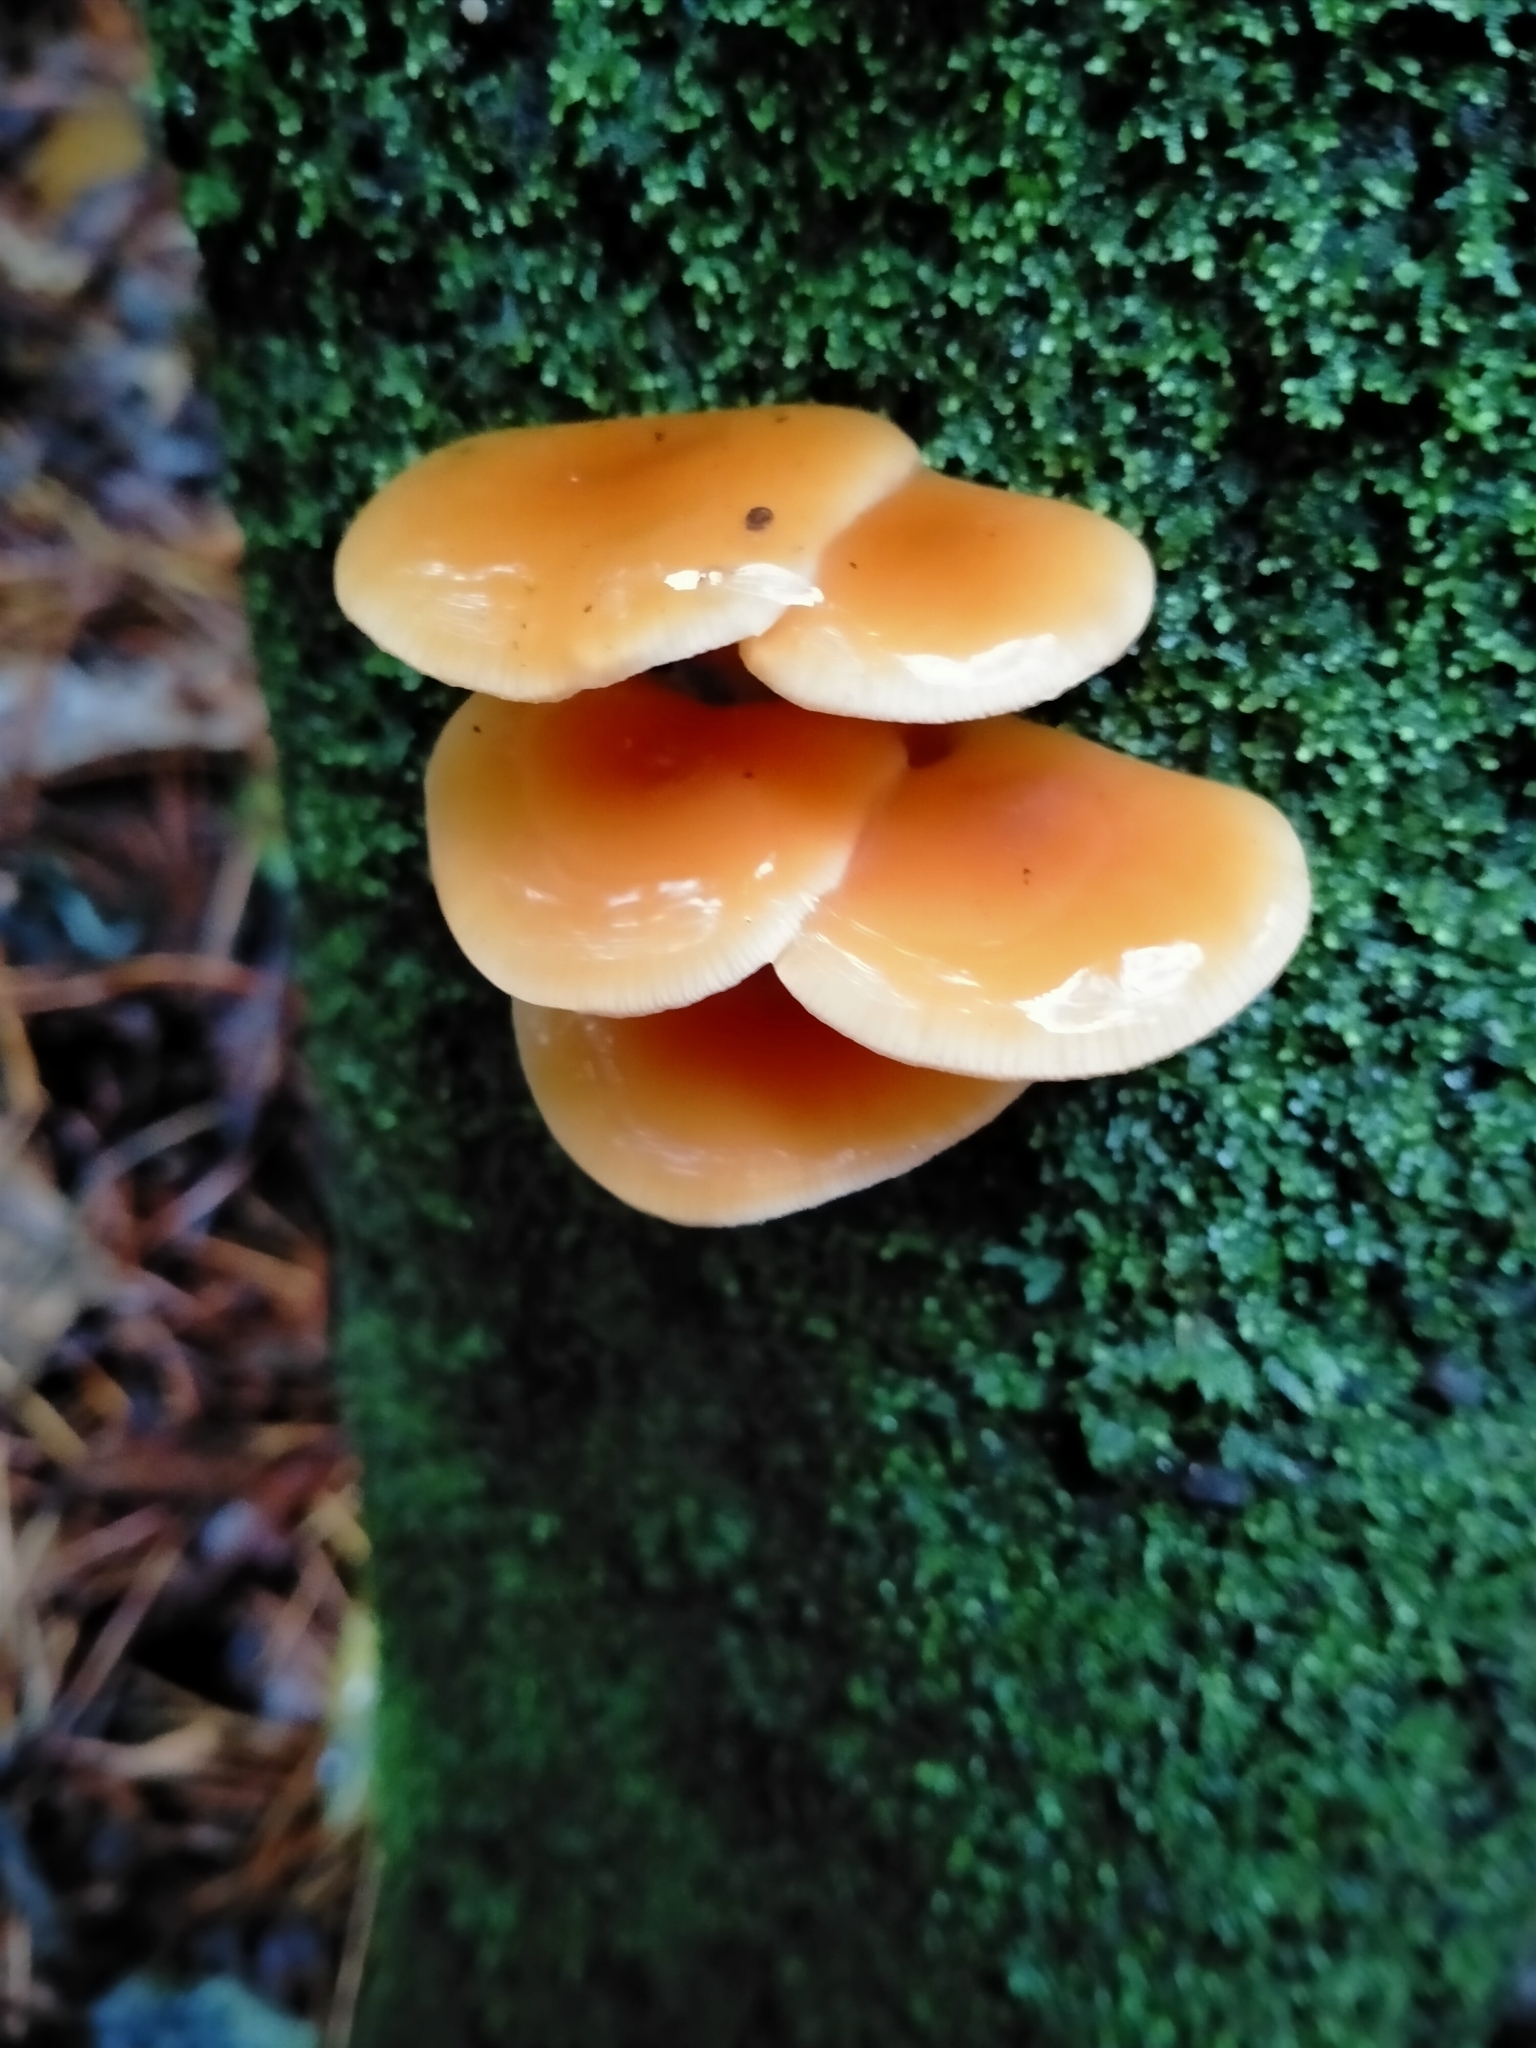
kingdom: Fungi
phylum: Basidiomycota
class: Agaricomycetes
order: Agaricales
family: Physalacriaceae
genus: Flammulina
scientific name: Flammulina velutipes
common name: Velvet shank
